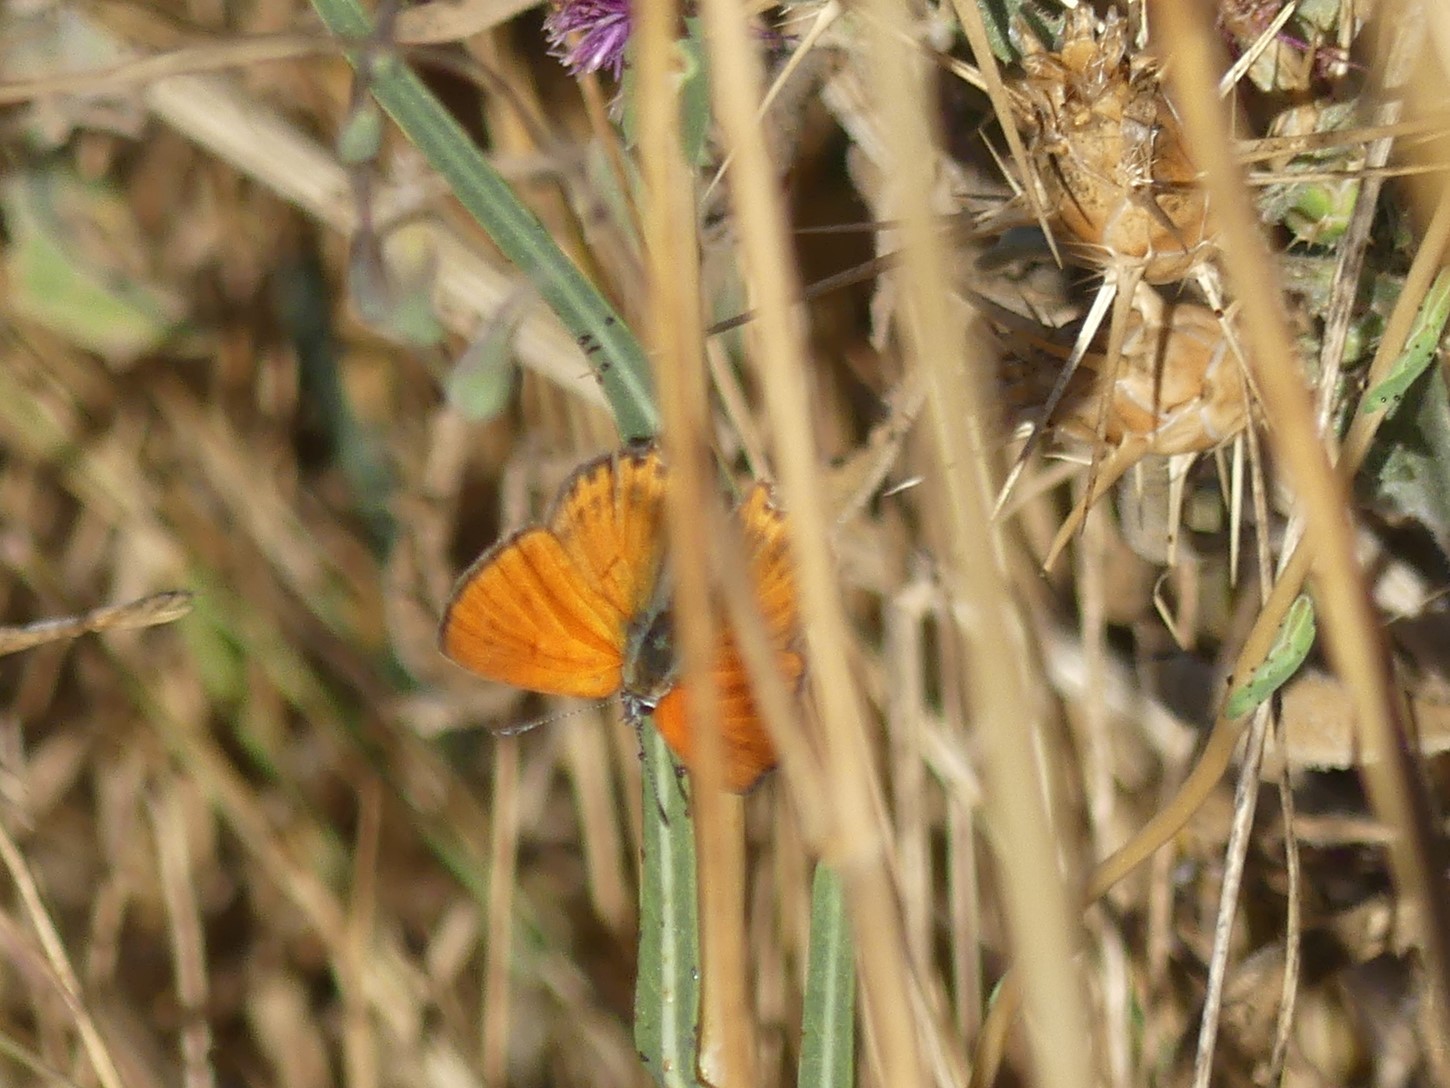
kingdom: Animalia
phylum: Arthropoda
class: Insecta
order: Lepidoptera
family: Lycaenidae
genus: Thersamonia
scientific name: Thersamonia thersamon
